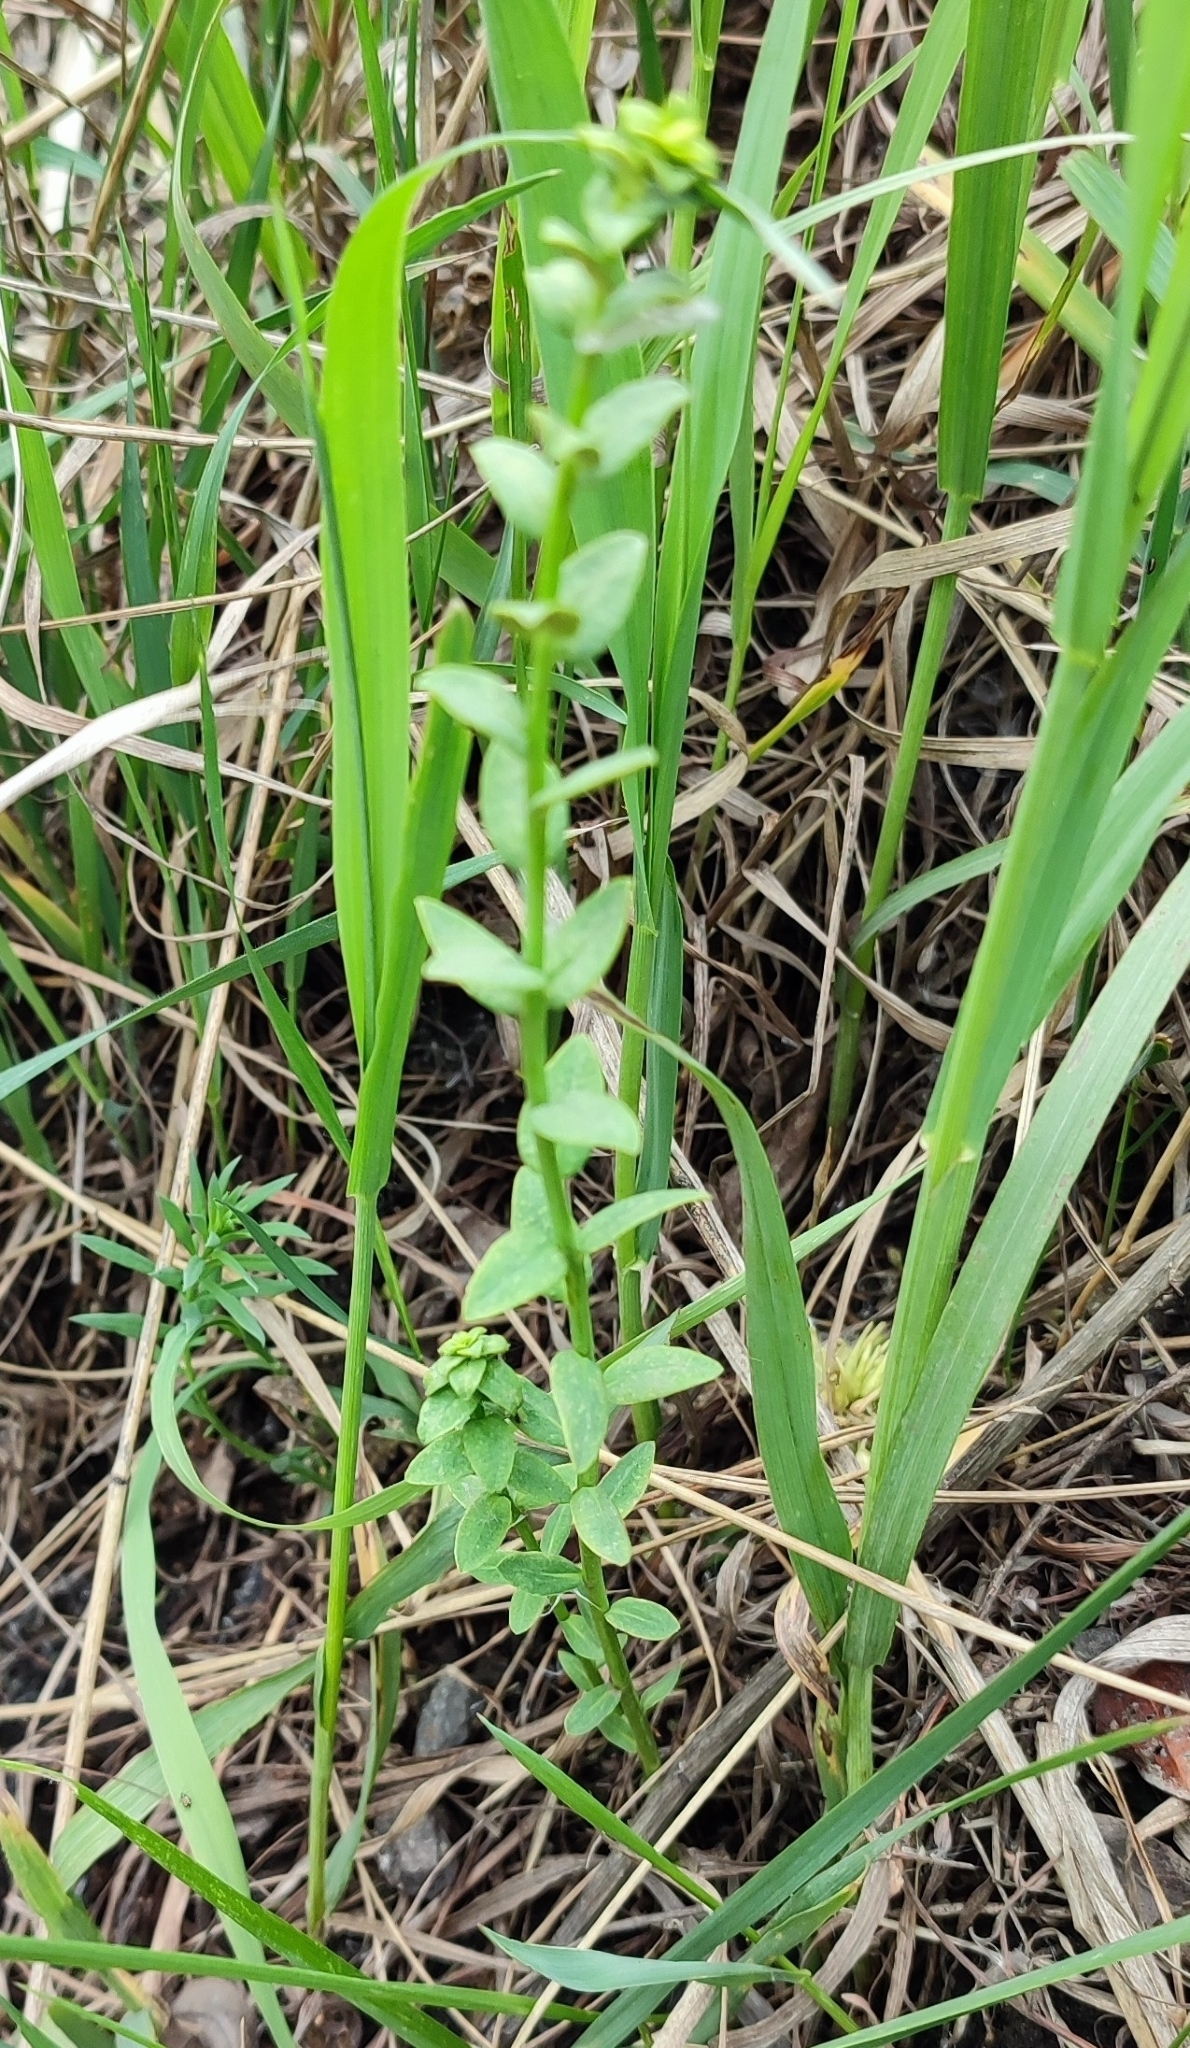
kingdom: Plantae
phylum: Tracheophyta
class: Magnoliopsida
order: Malpighiales
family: Euphorbiaceae
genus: Euphorbia
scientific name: Euphorbia virgata
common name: Leafy spurge
